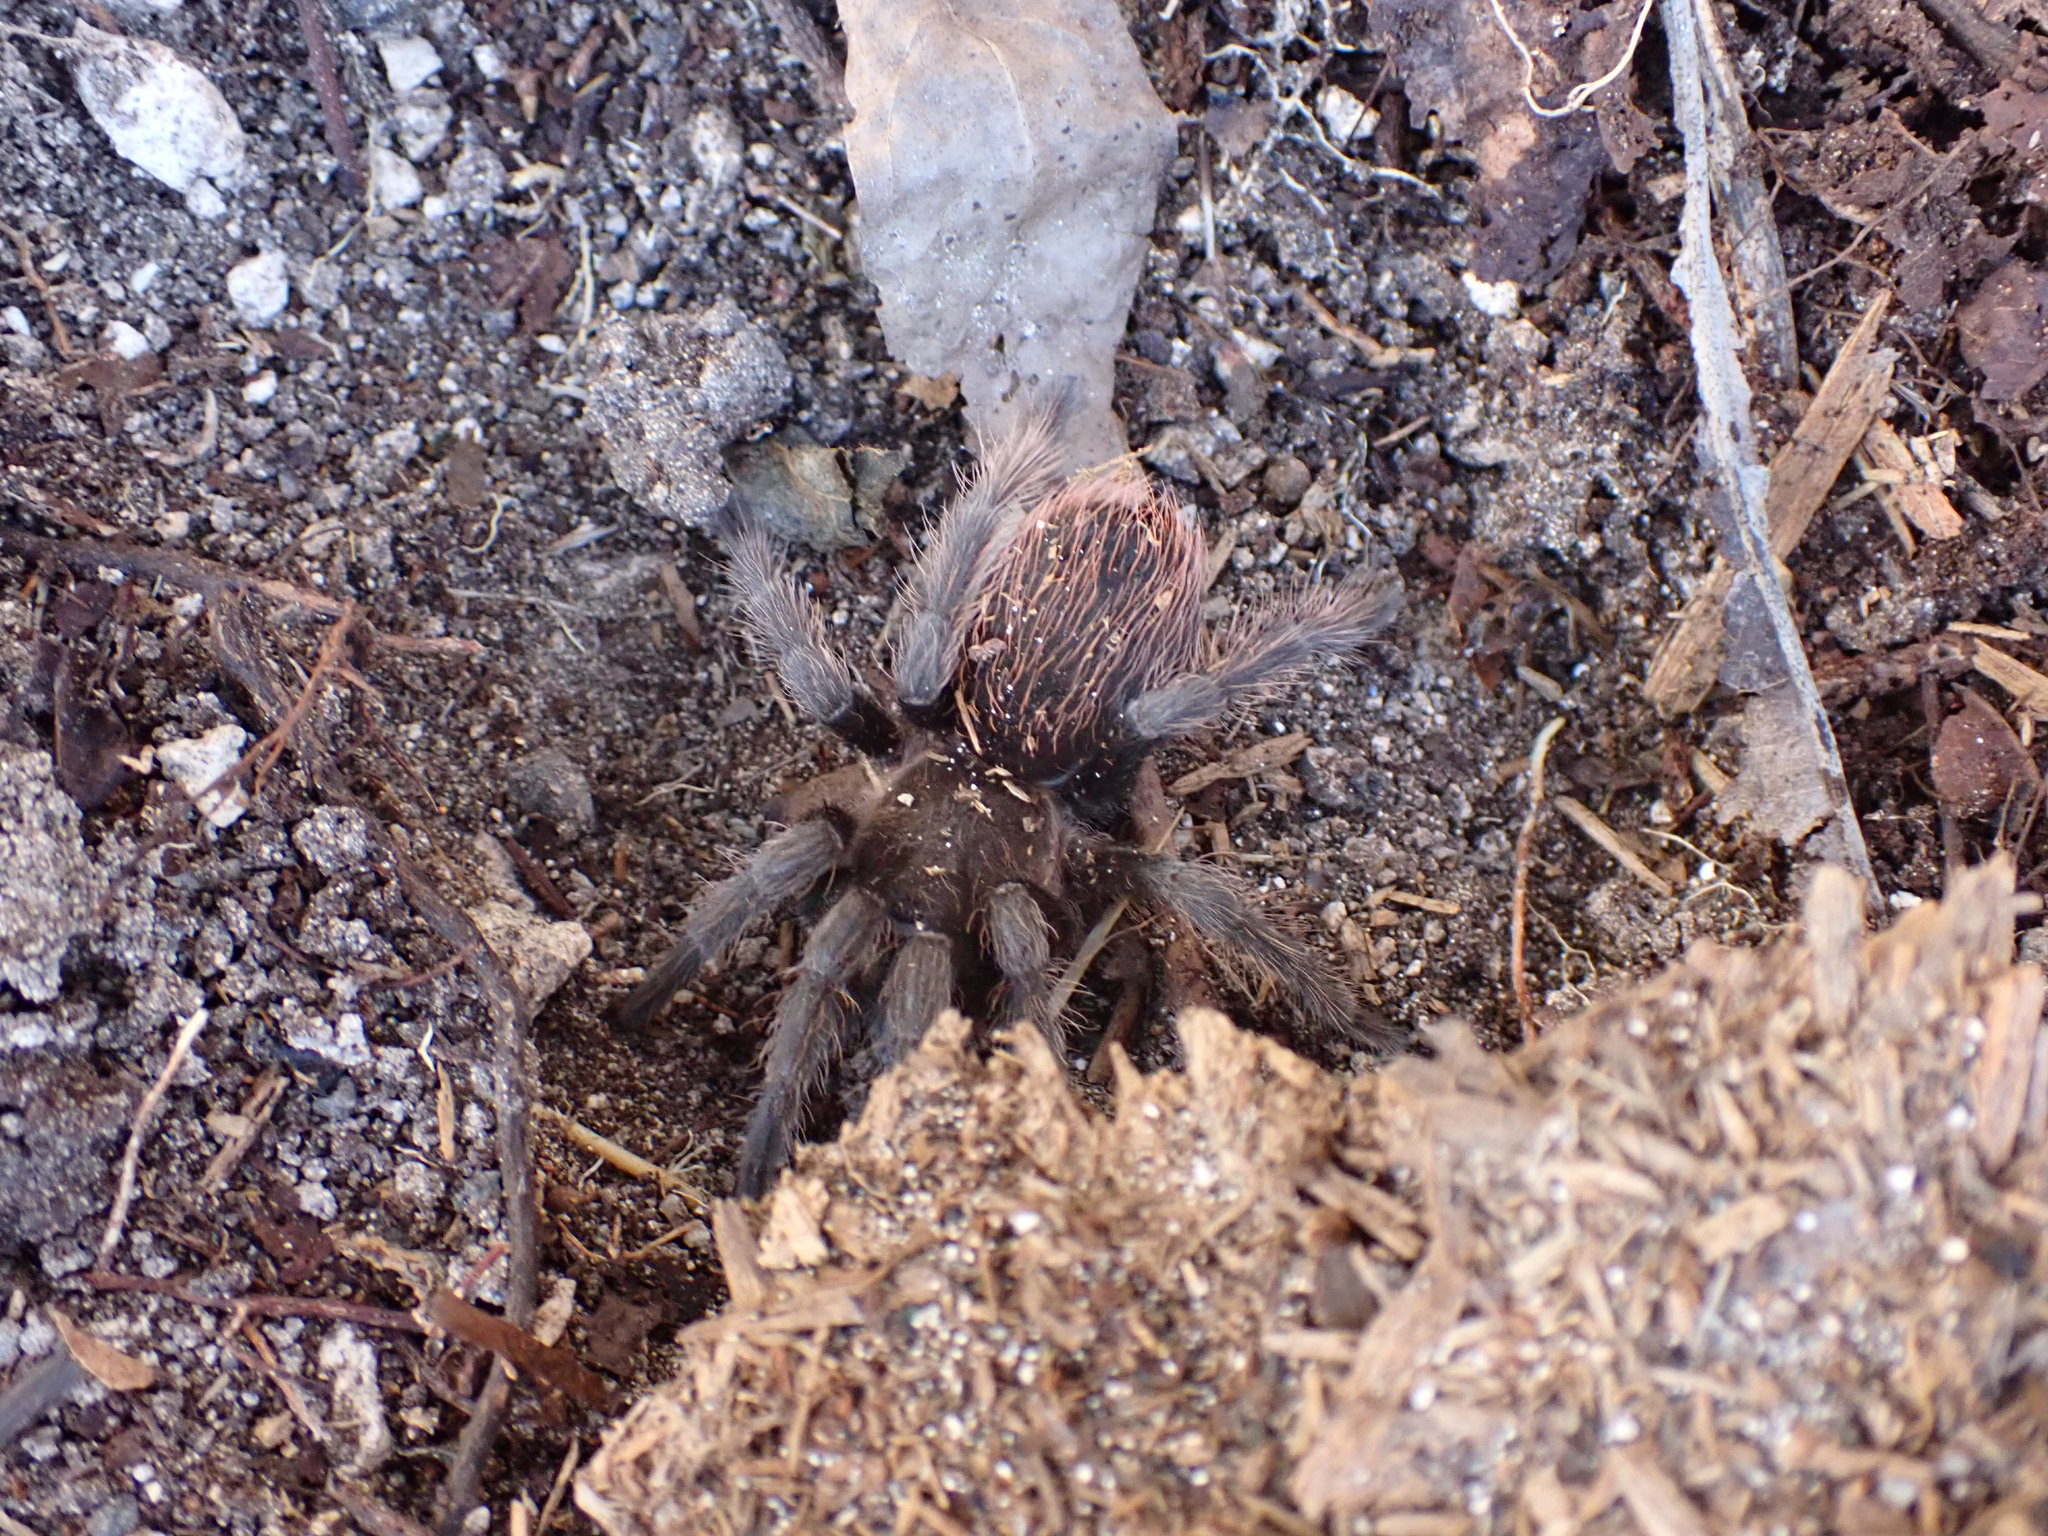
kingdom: Animalia
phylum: Arthropoda
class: Arachnida
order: Araneae
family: Theraphosidae
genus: Tliltocatl
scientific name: Tliltocatl vagans
